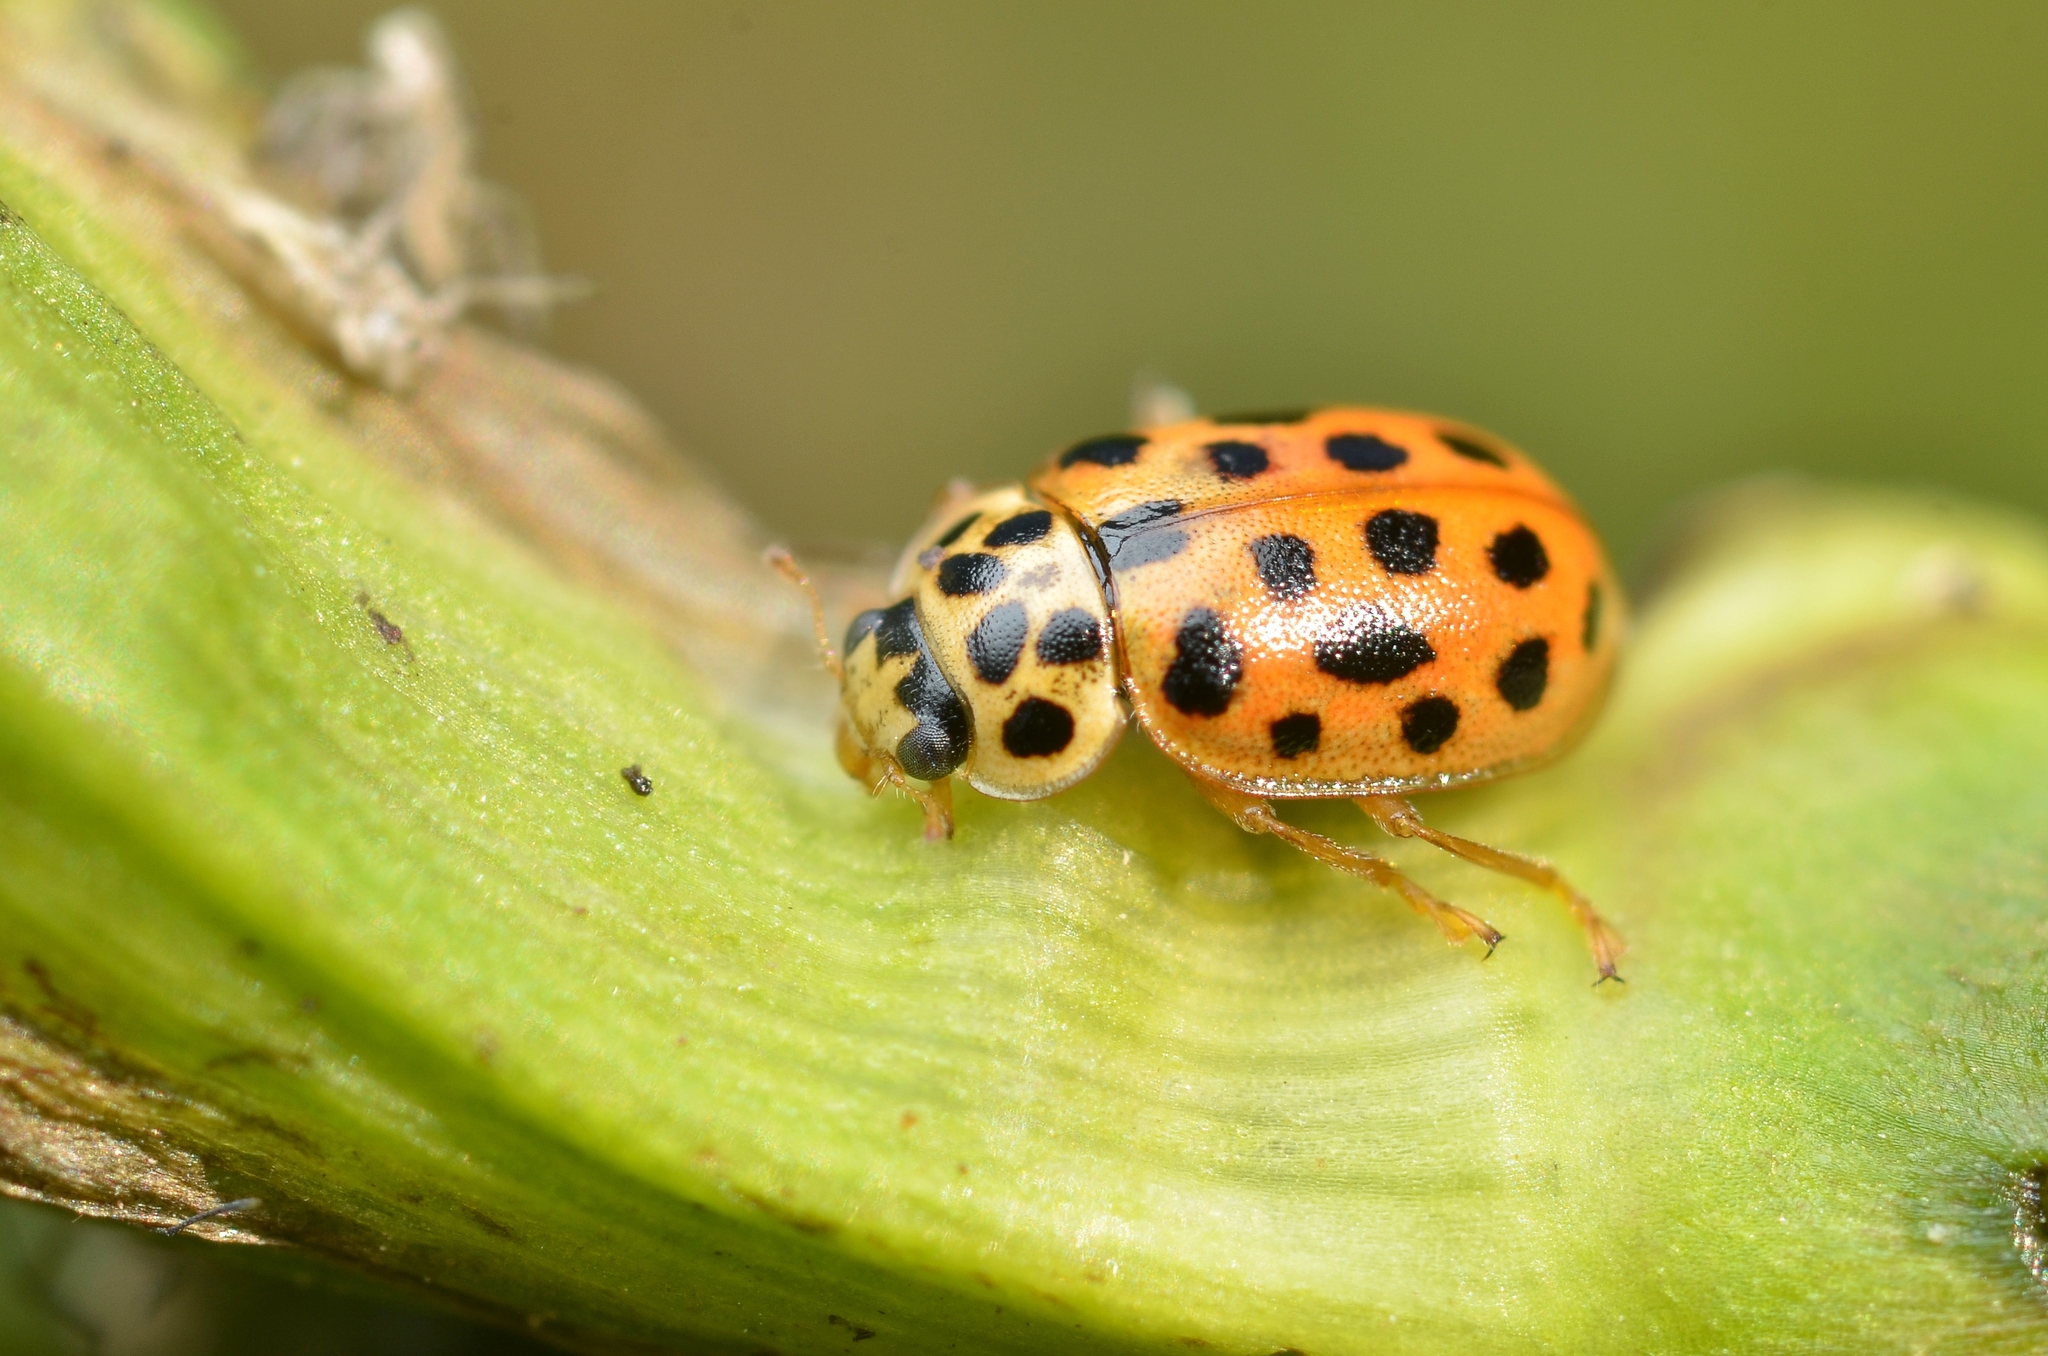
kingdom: Animalia
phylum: Arthropoda
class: Insecta
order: Coleoptera
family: Coccinellidae
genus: Anisosticta
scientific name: Anisosticta novemdecimpunctata
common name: Water ladybird
